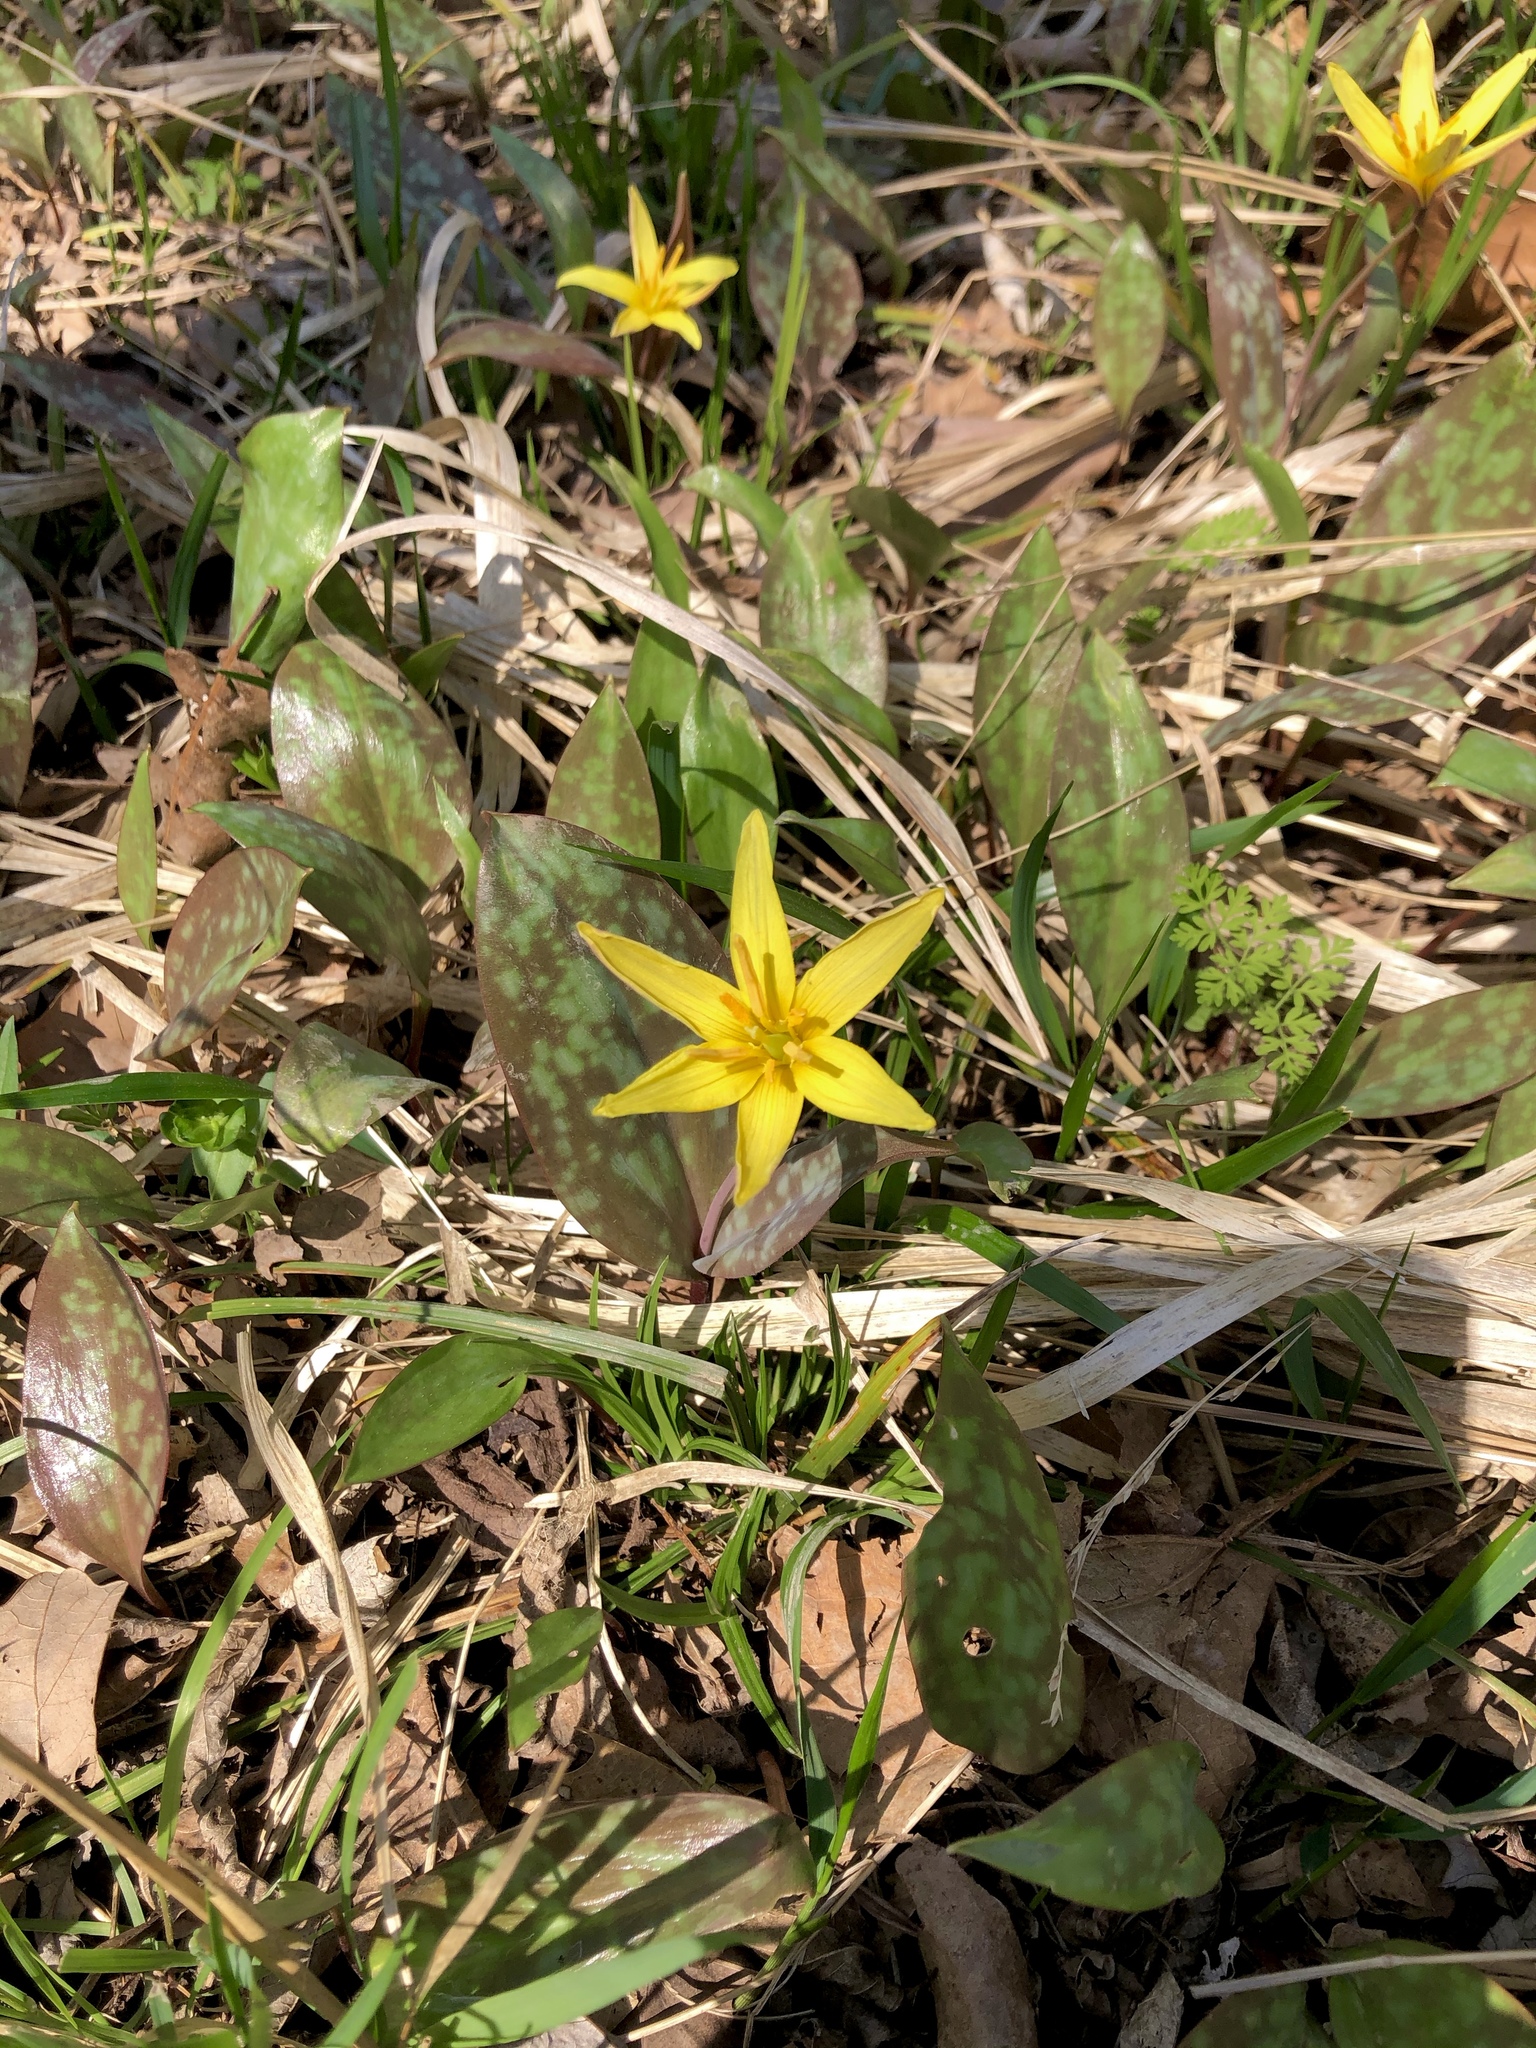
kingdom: Plantae
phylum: Tracheophyta
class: Liliopsida
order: Liliales
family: Liliaceae
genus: Erythronium
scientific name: Erythronium rostratum
